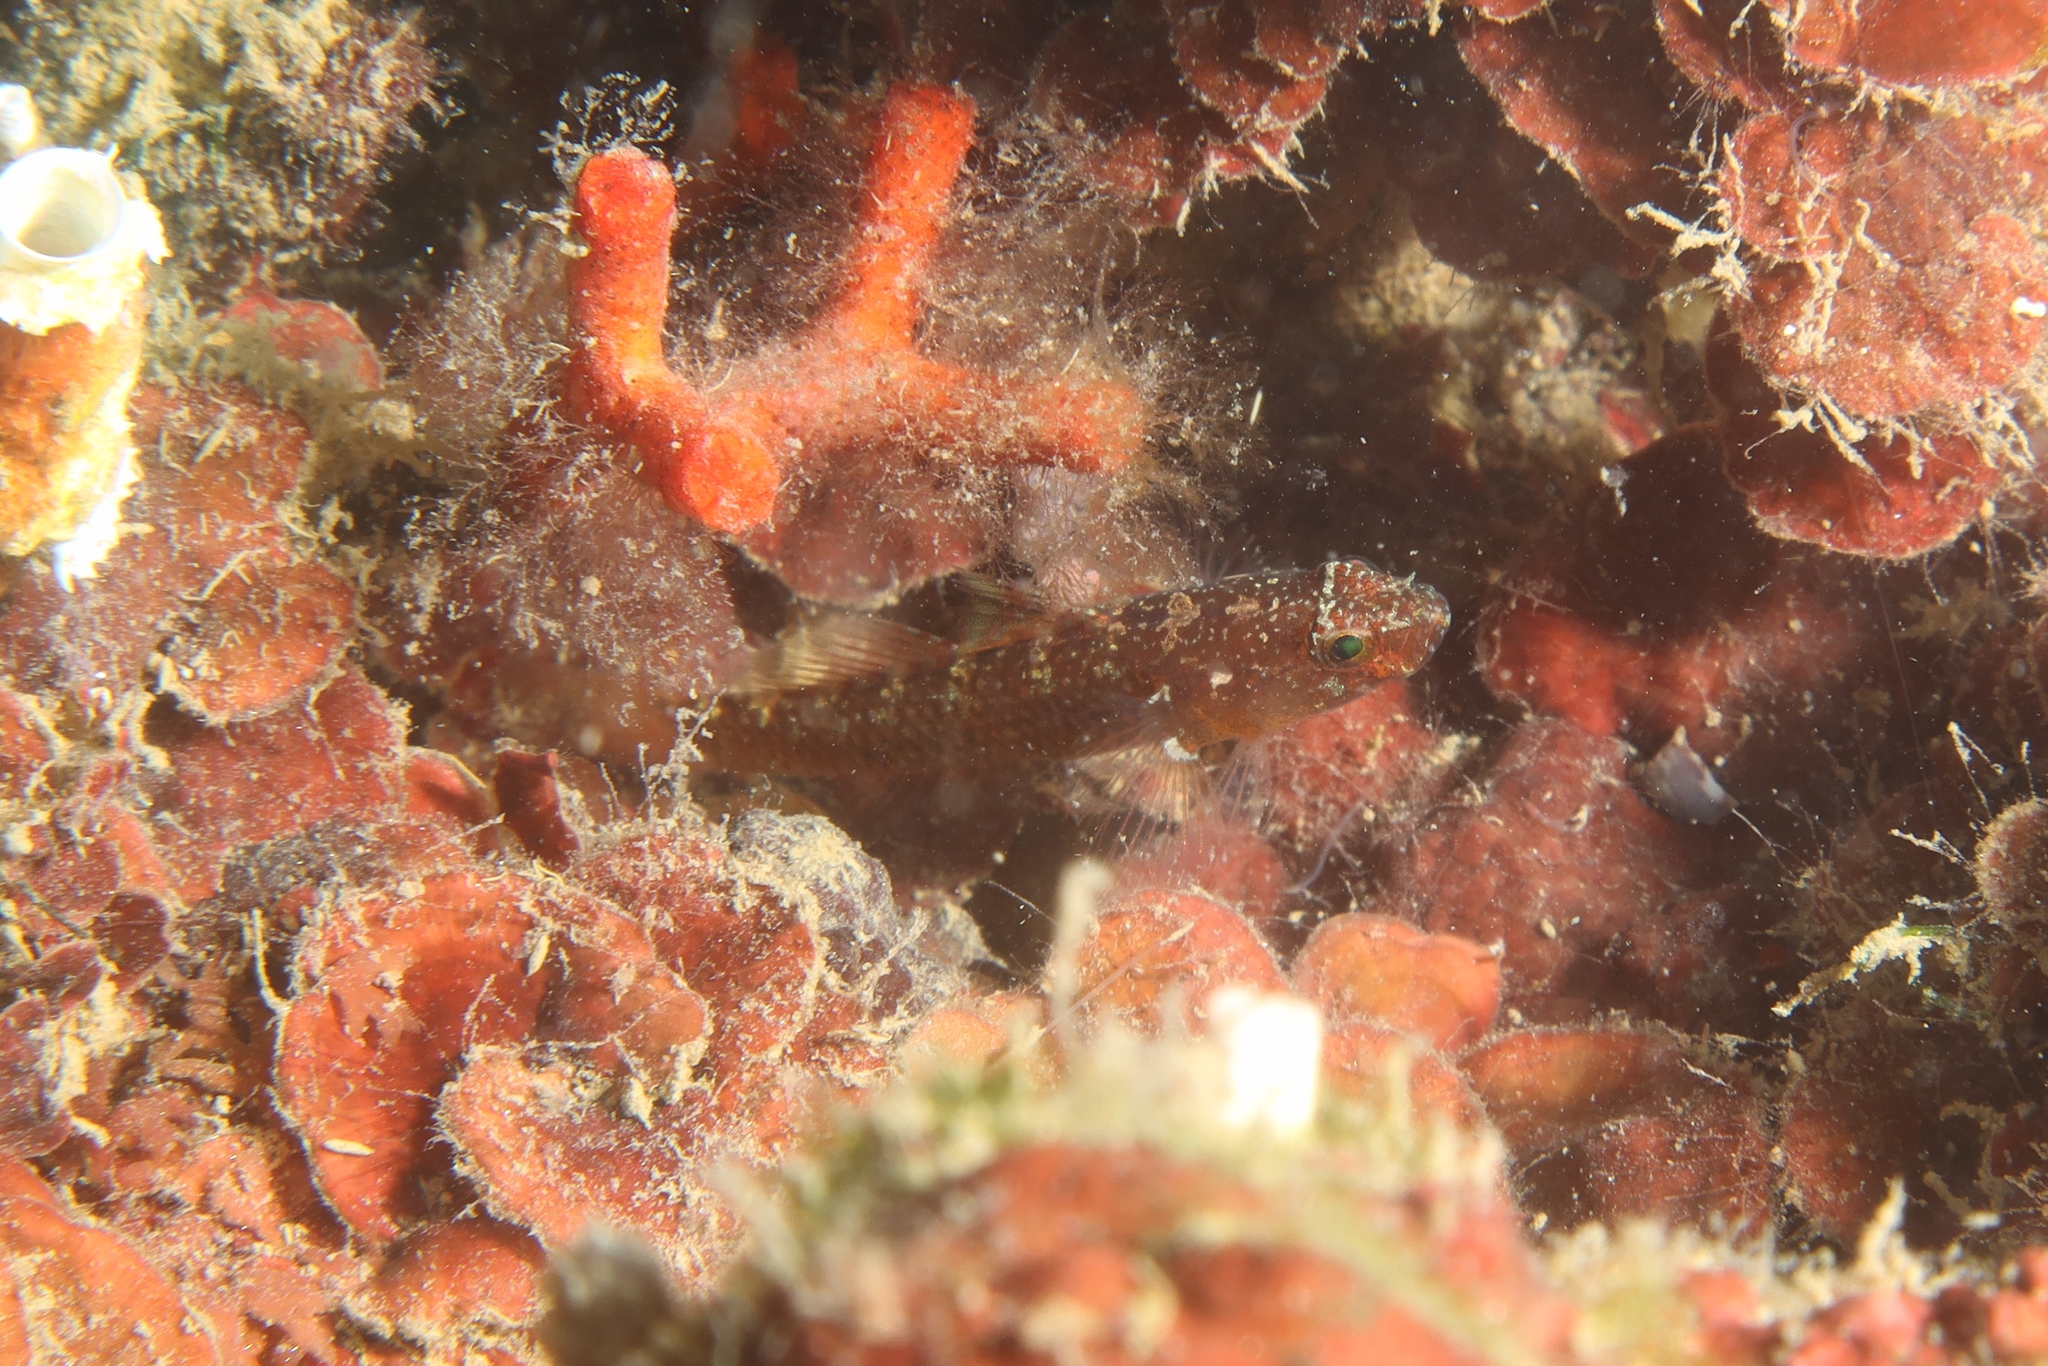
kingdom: Animalia
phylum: Chordata
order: Perciformes
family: Gobiidae
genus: Odondebuenia
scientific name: Odondebuenia balearica
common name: Coralline goby
